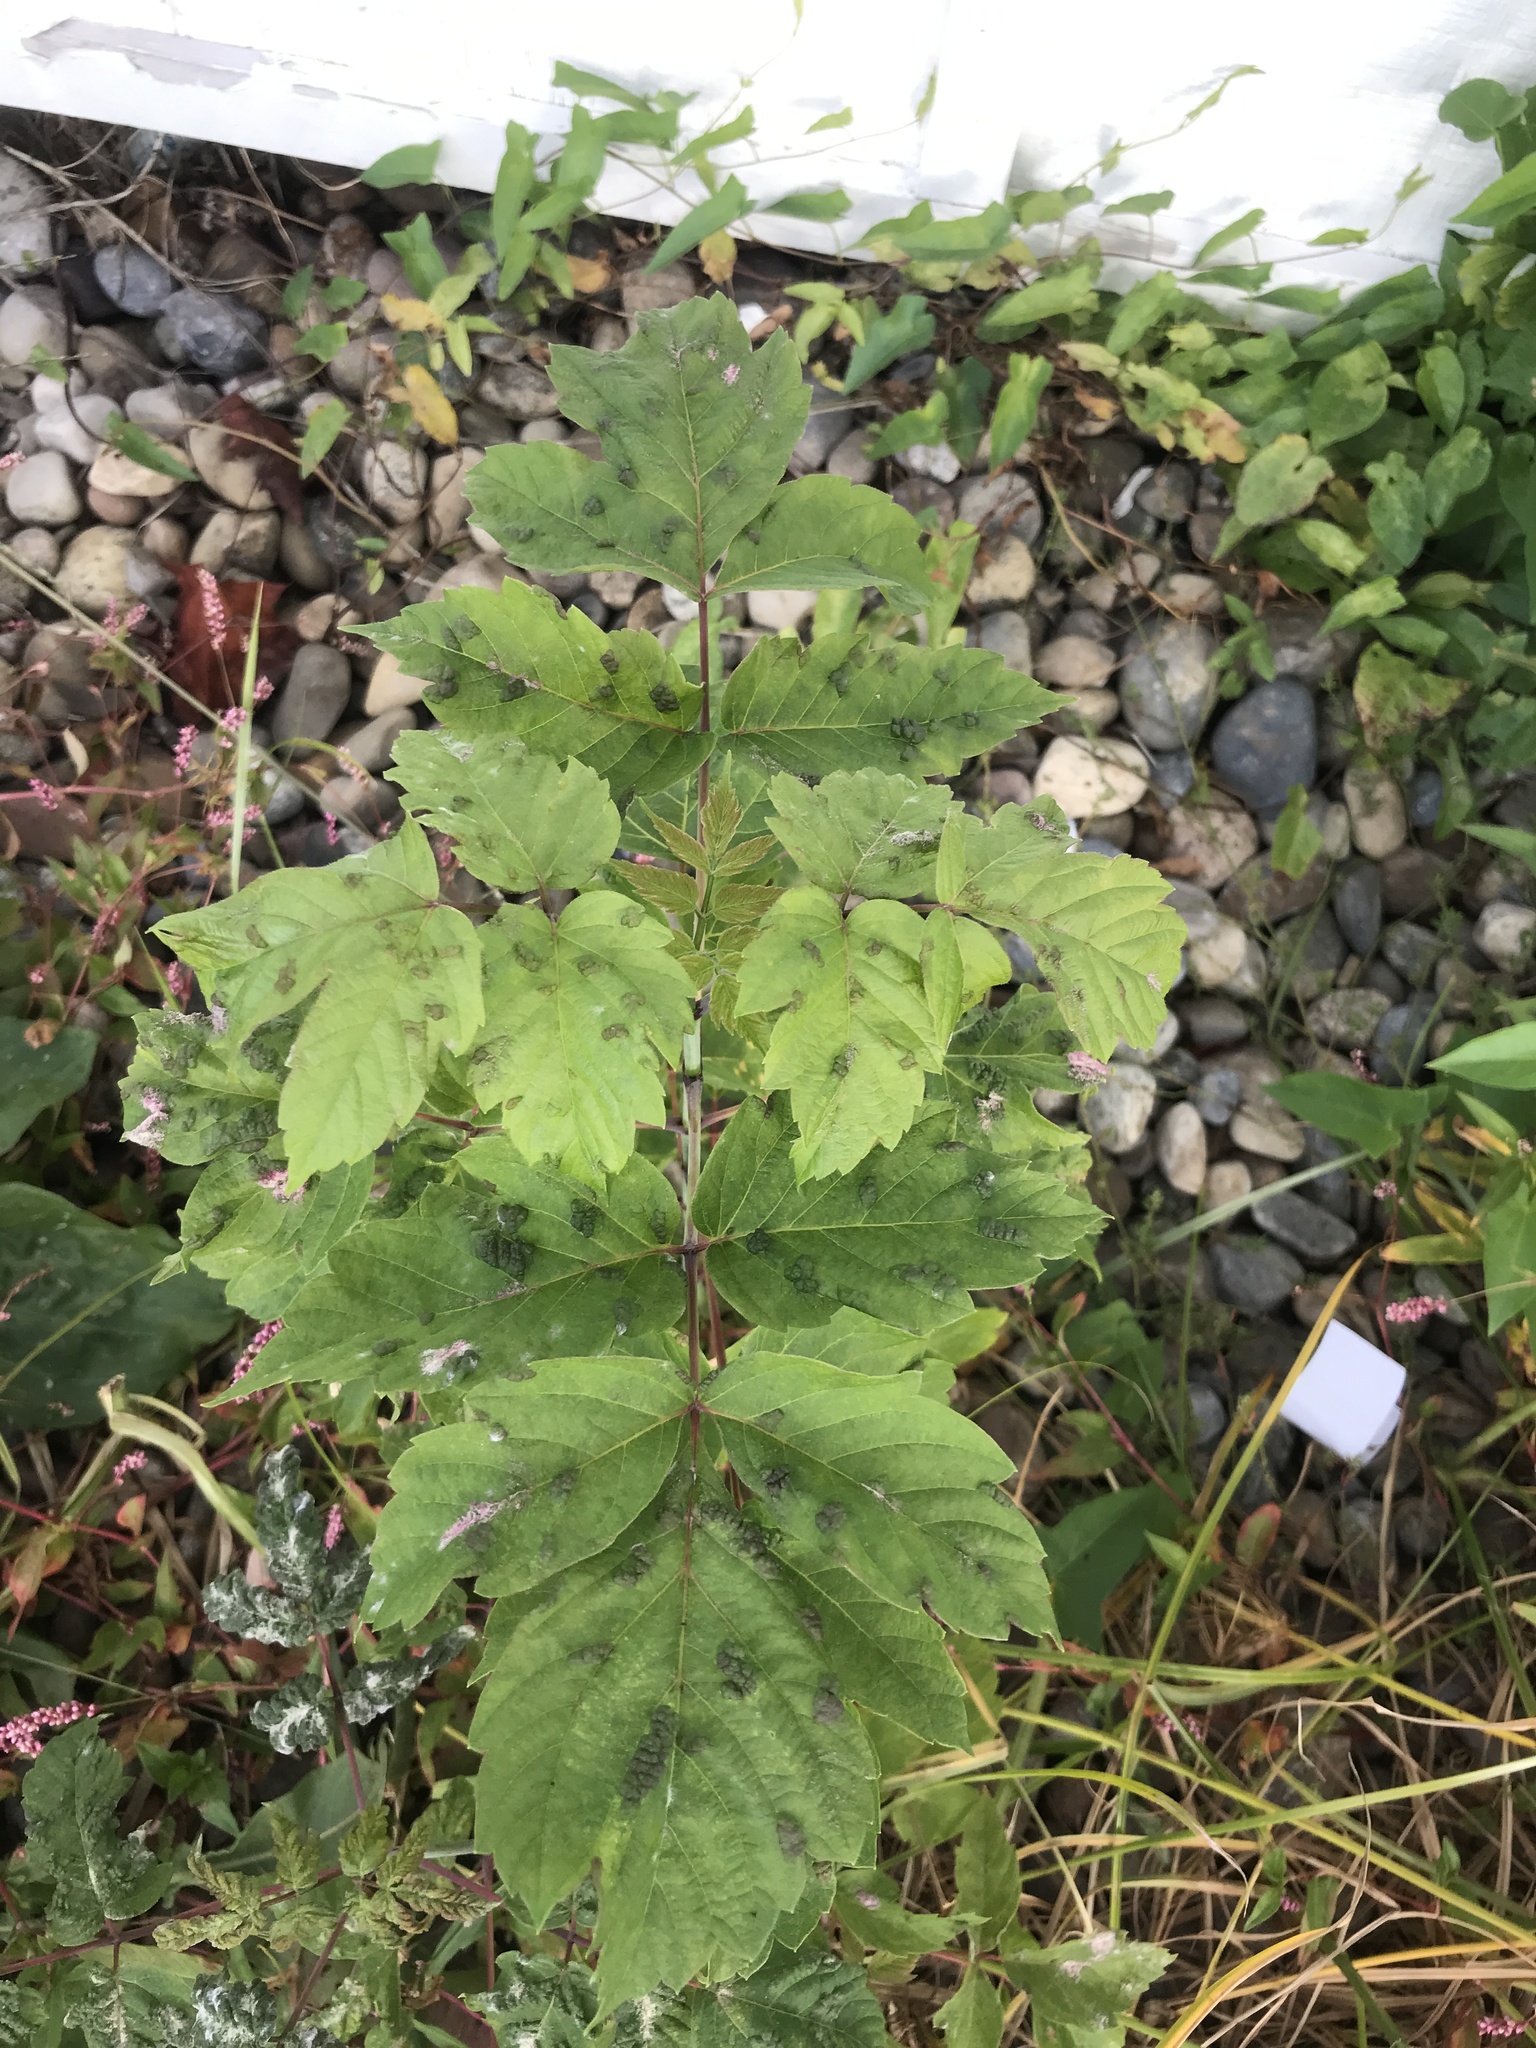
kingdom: Plantae
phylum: Tracheophyta
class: Magnoliopsida
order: Sapindales
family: Sapindaceae
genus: Acer
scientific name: Acer negundo
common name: Ashleaf maple
